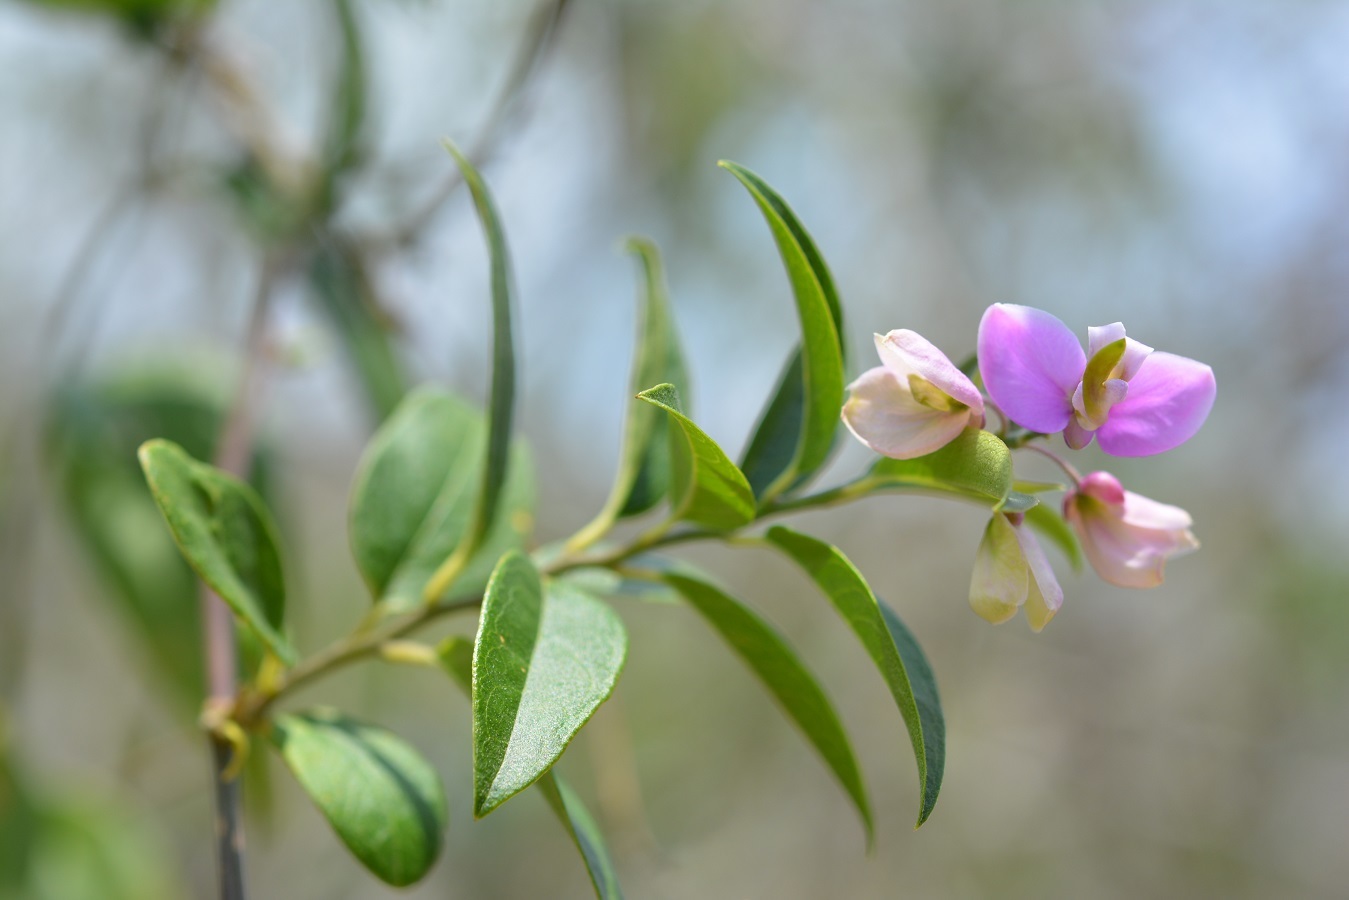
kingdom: Plantae
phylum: Tracheophyta
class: Magnoliopsida
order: Fabales
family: Polygalaceae
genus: Asemeia
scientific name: Asemeia floribunda
